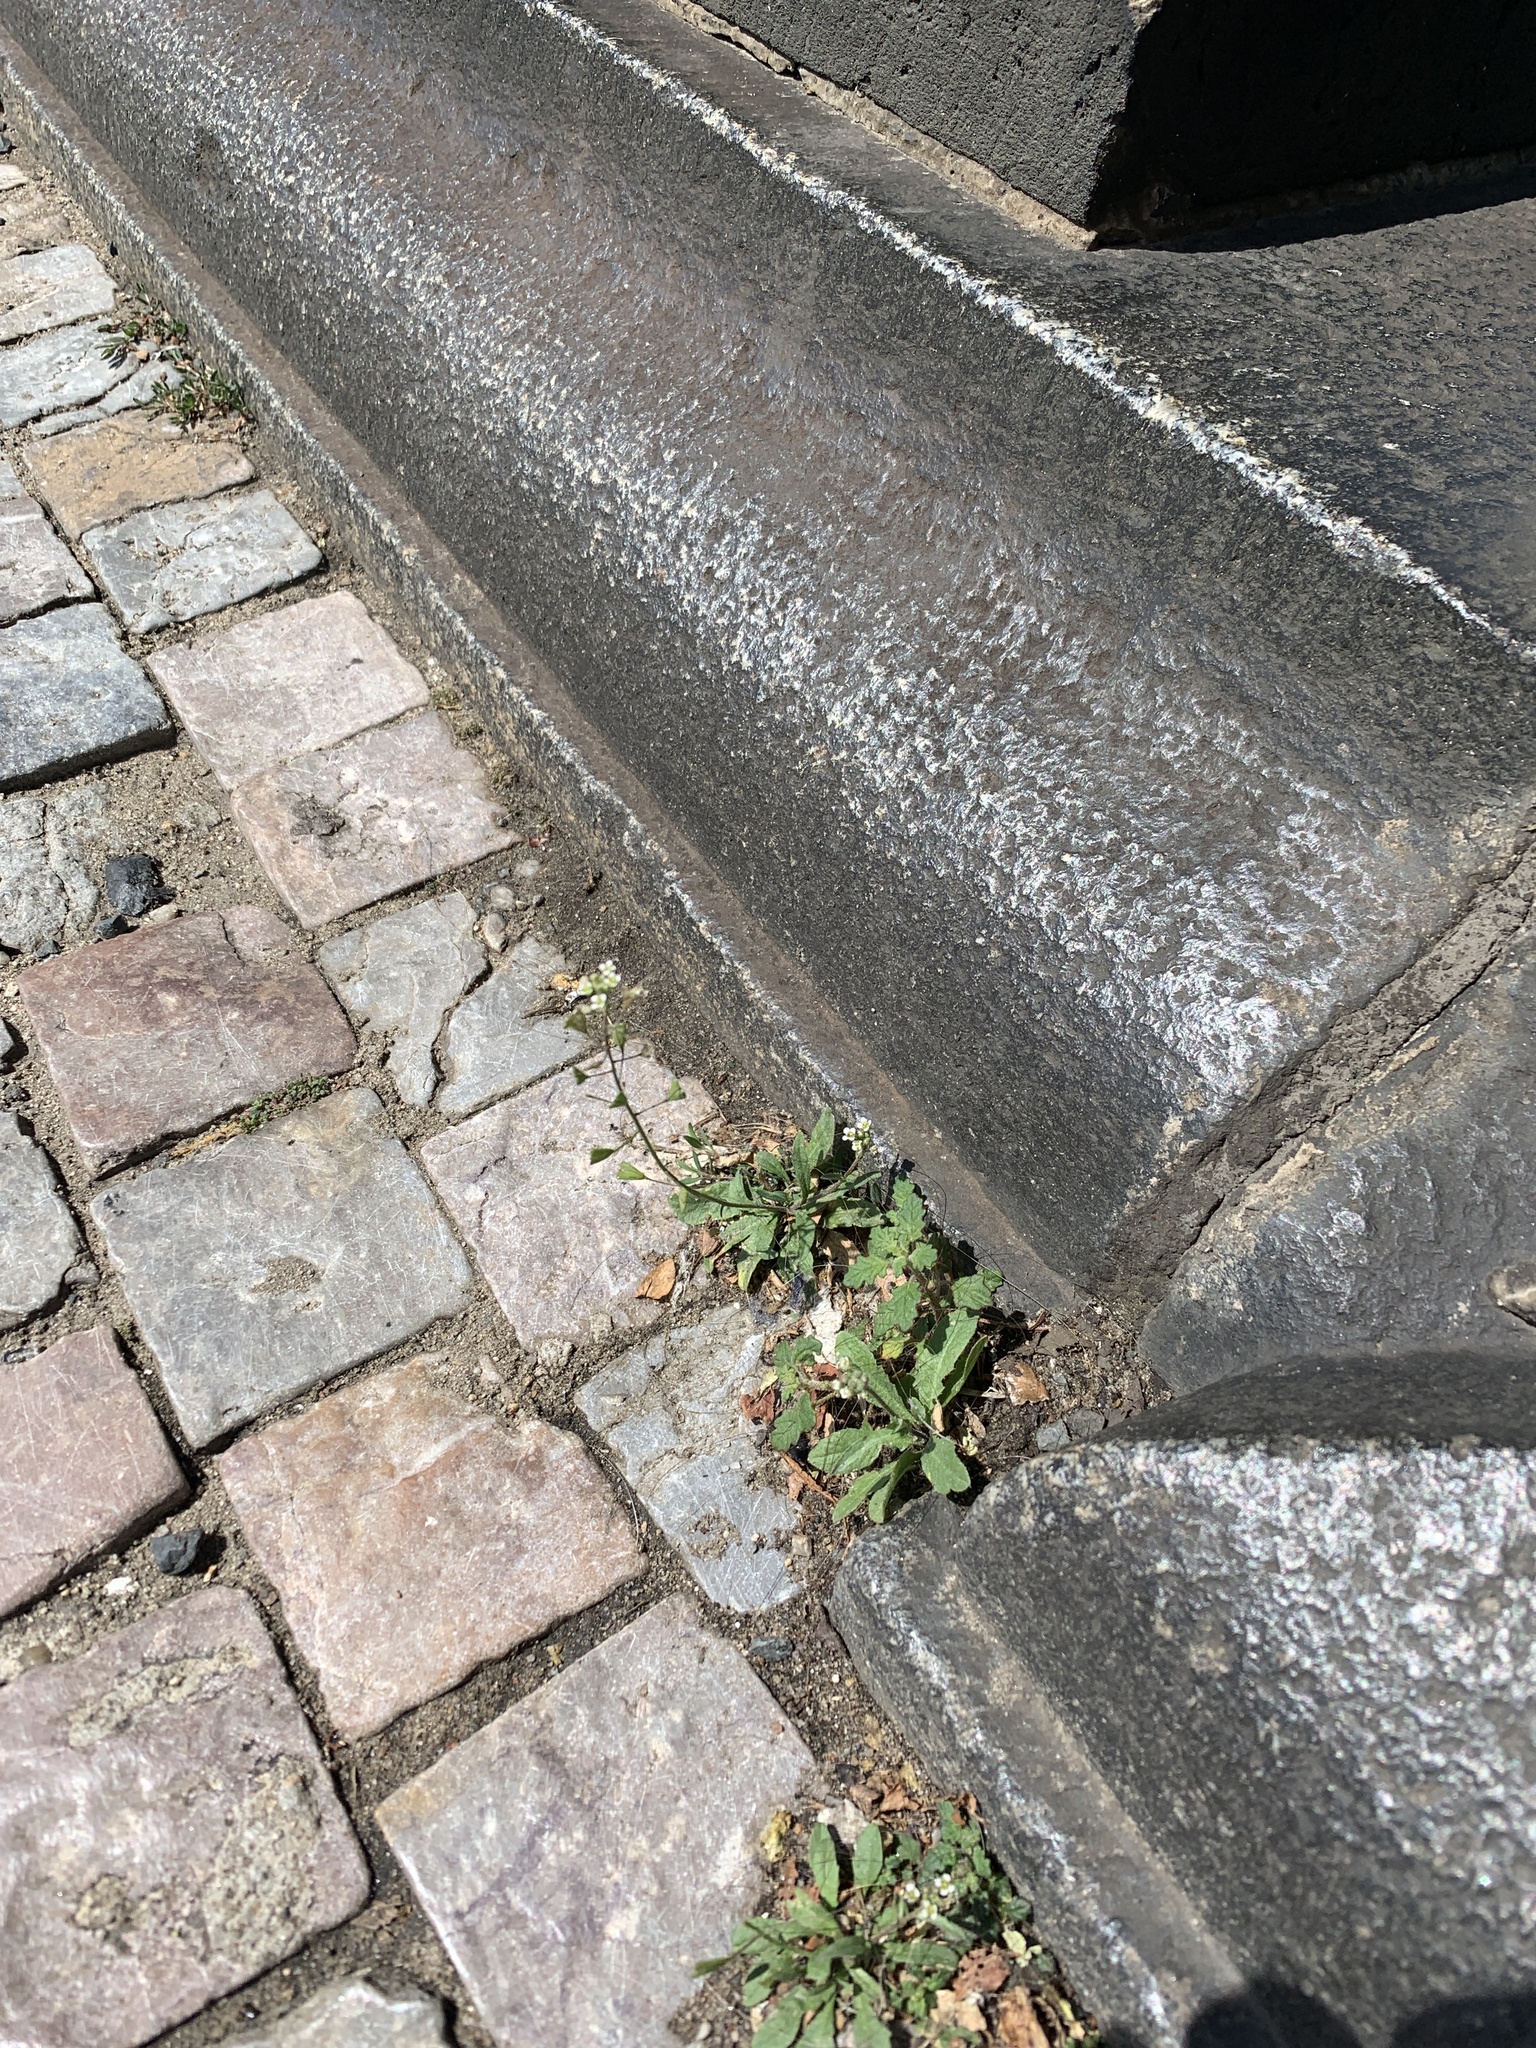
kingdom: Plantae
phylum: Tracheophyta
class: Magnoliopsida
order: Brassicales
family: Brassicaceae
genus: Capsella
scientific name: Capsella bursa-pastoris
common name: Shepherd's purse
